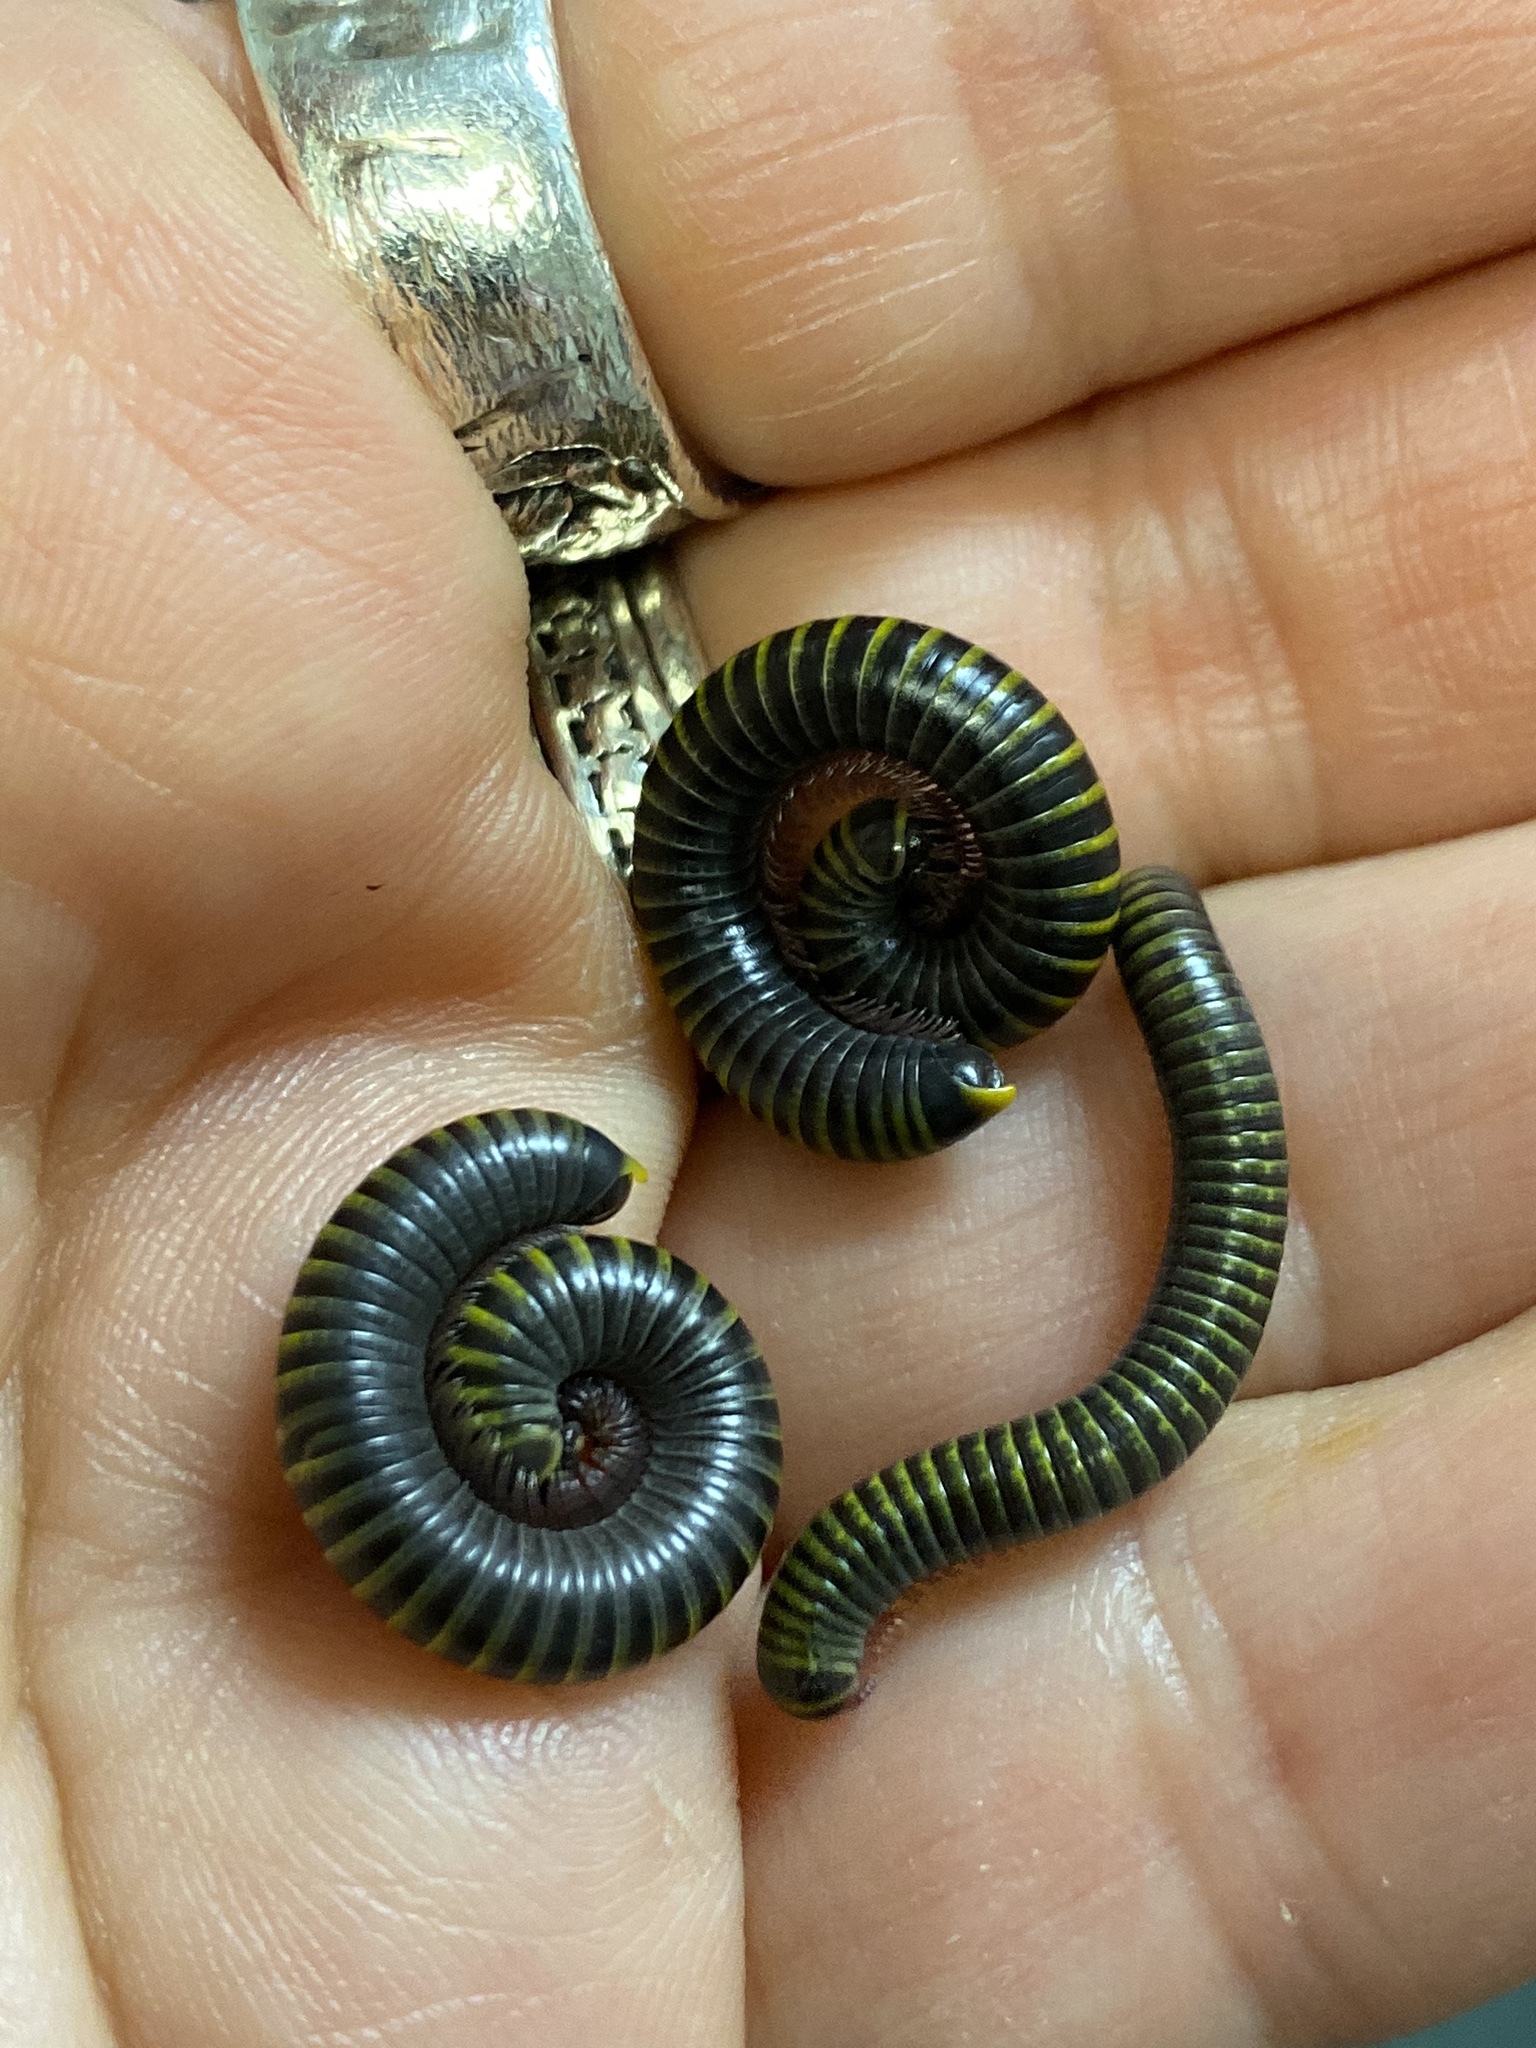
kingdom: Animalia
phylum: Arthropoda
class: Diplopoda
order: Spirobolida
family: Rhinocricidae
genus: Anadenobolus
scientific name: Anadenobolus monilicornis
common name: Caribbean millipede
